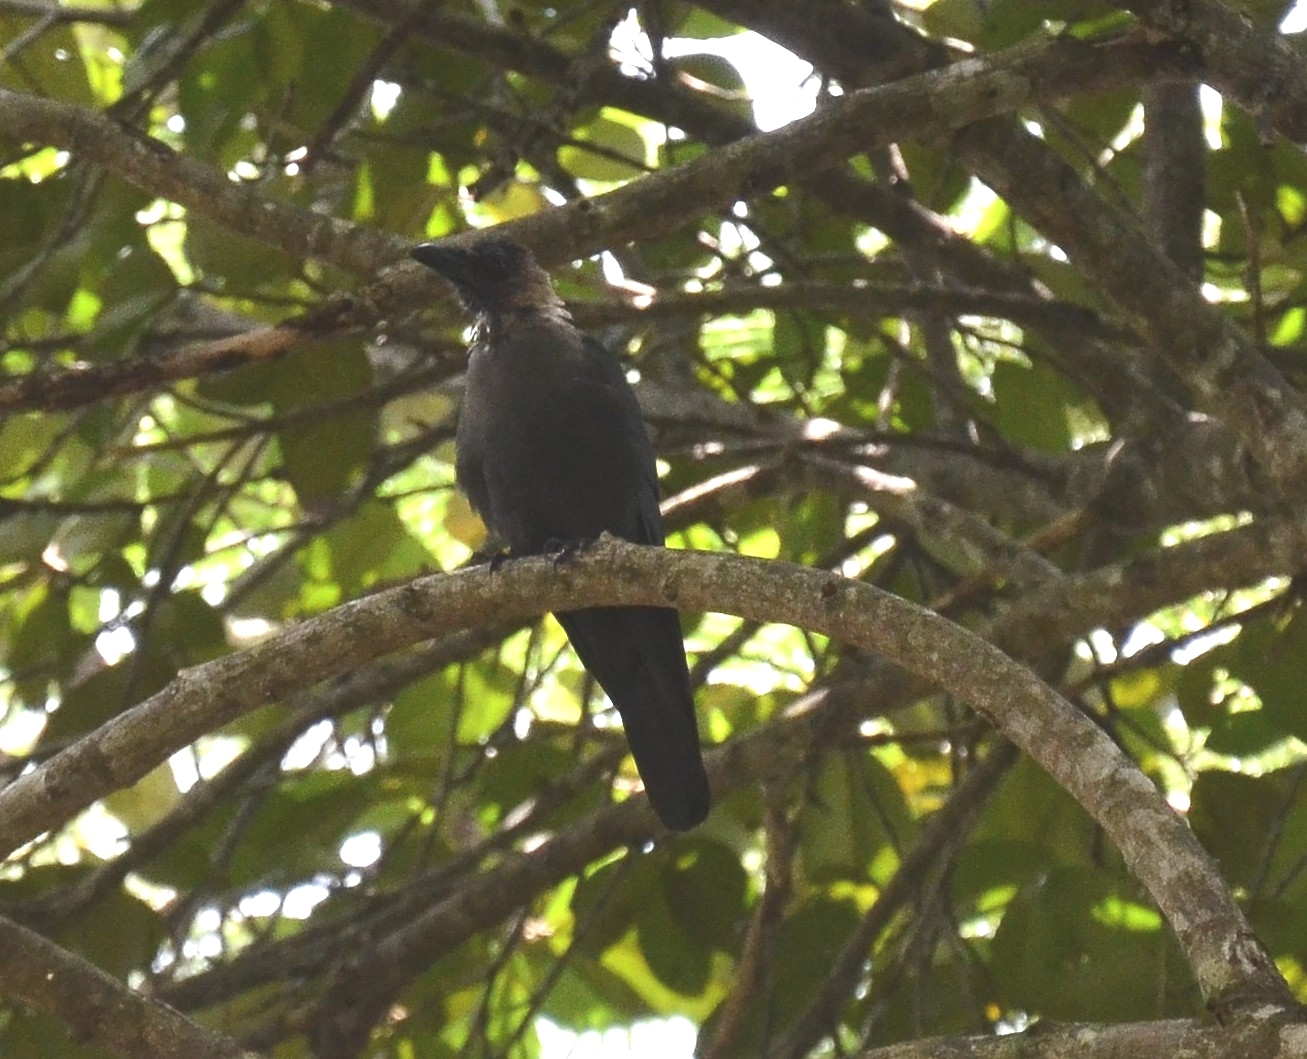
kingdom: Animalia
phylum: Chordata
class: Aves
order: Passeriformes
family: Corvidae
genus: Corvus
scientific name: Corvus splendens
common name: House crow
